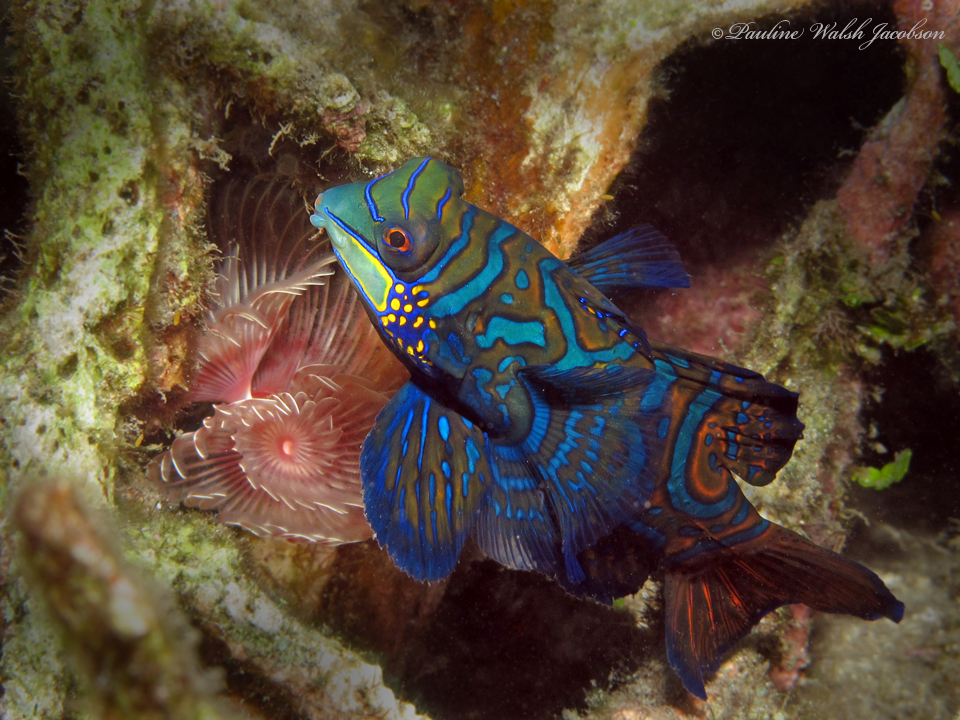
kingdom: Animalia
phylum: Chordata
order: Perciformes
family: Callionymidae
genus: Synchiropus
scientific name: Synchiropus splendidus
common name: Mandarinfish
